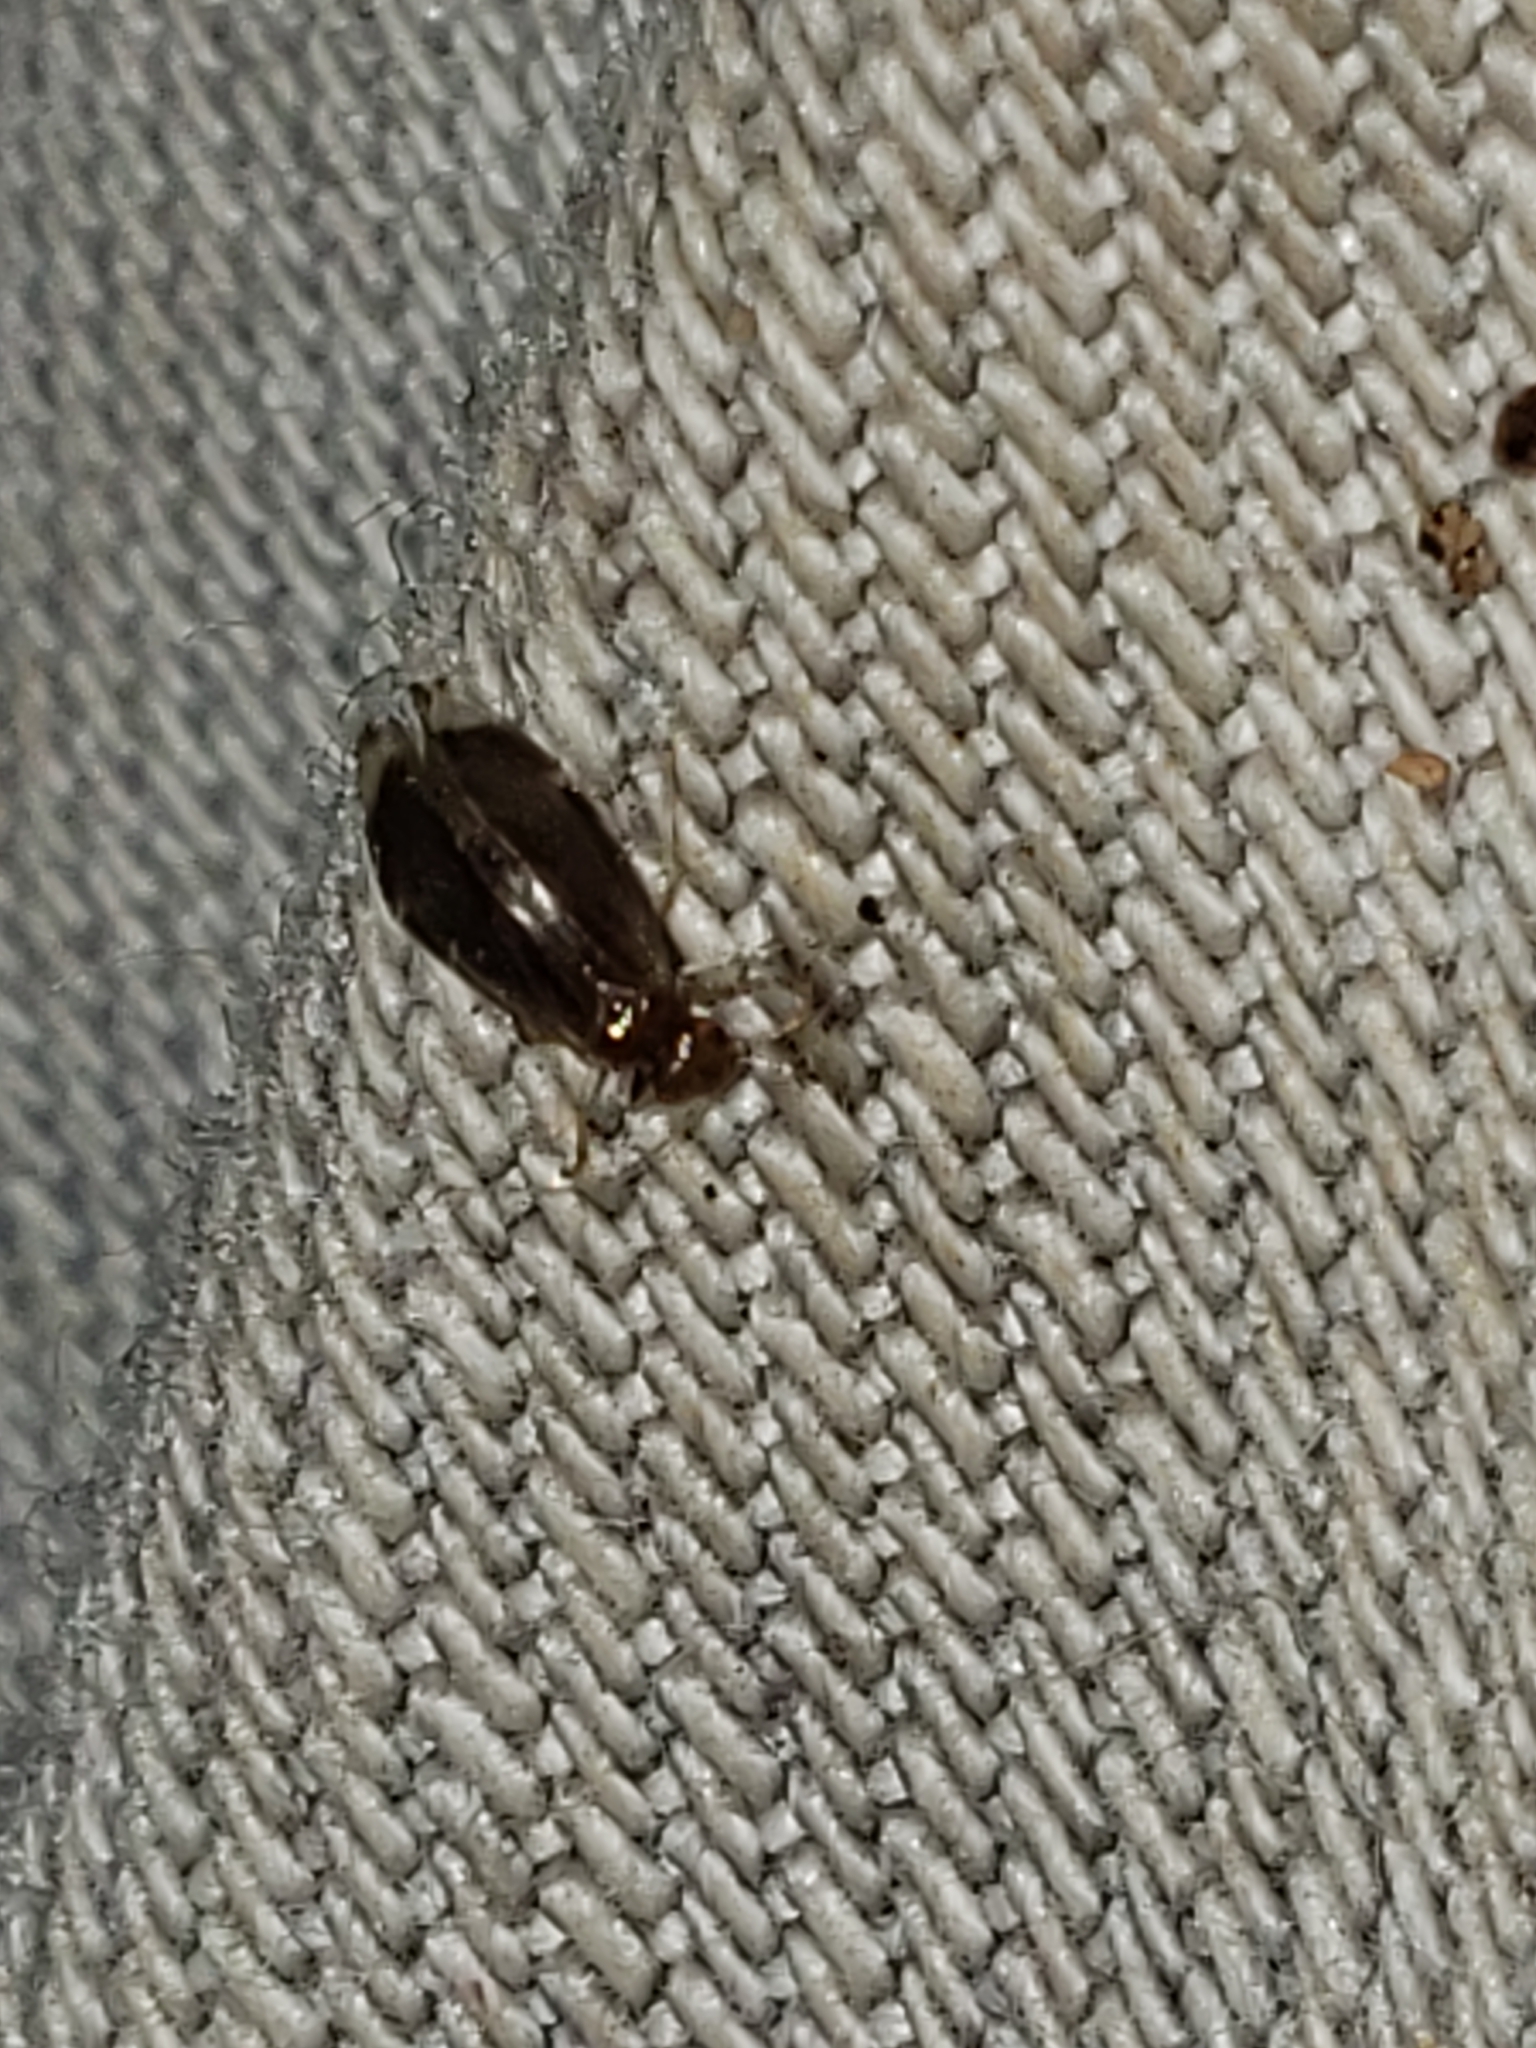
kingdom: Animalia
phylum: Arthropoda
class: Insecta
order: Psocodea
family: Amphipsocidae
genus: Polypsocus
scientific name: Polypsocus corruptus
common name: Corrupt barklouse
